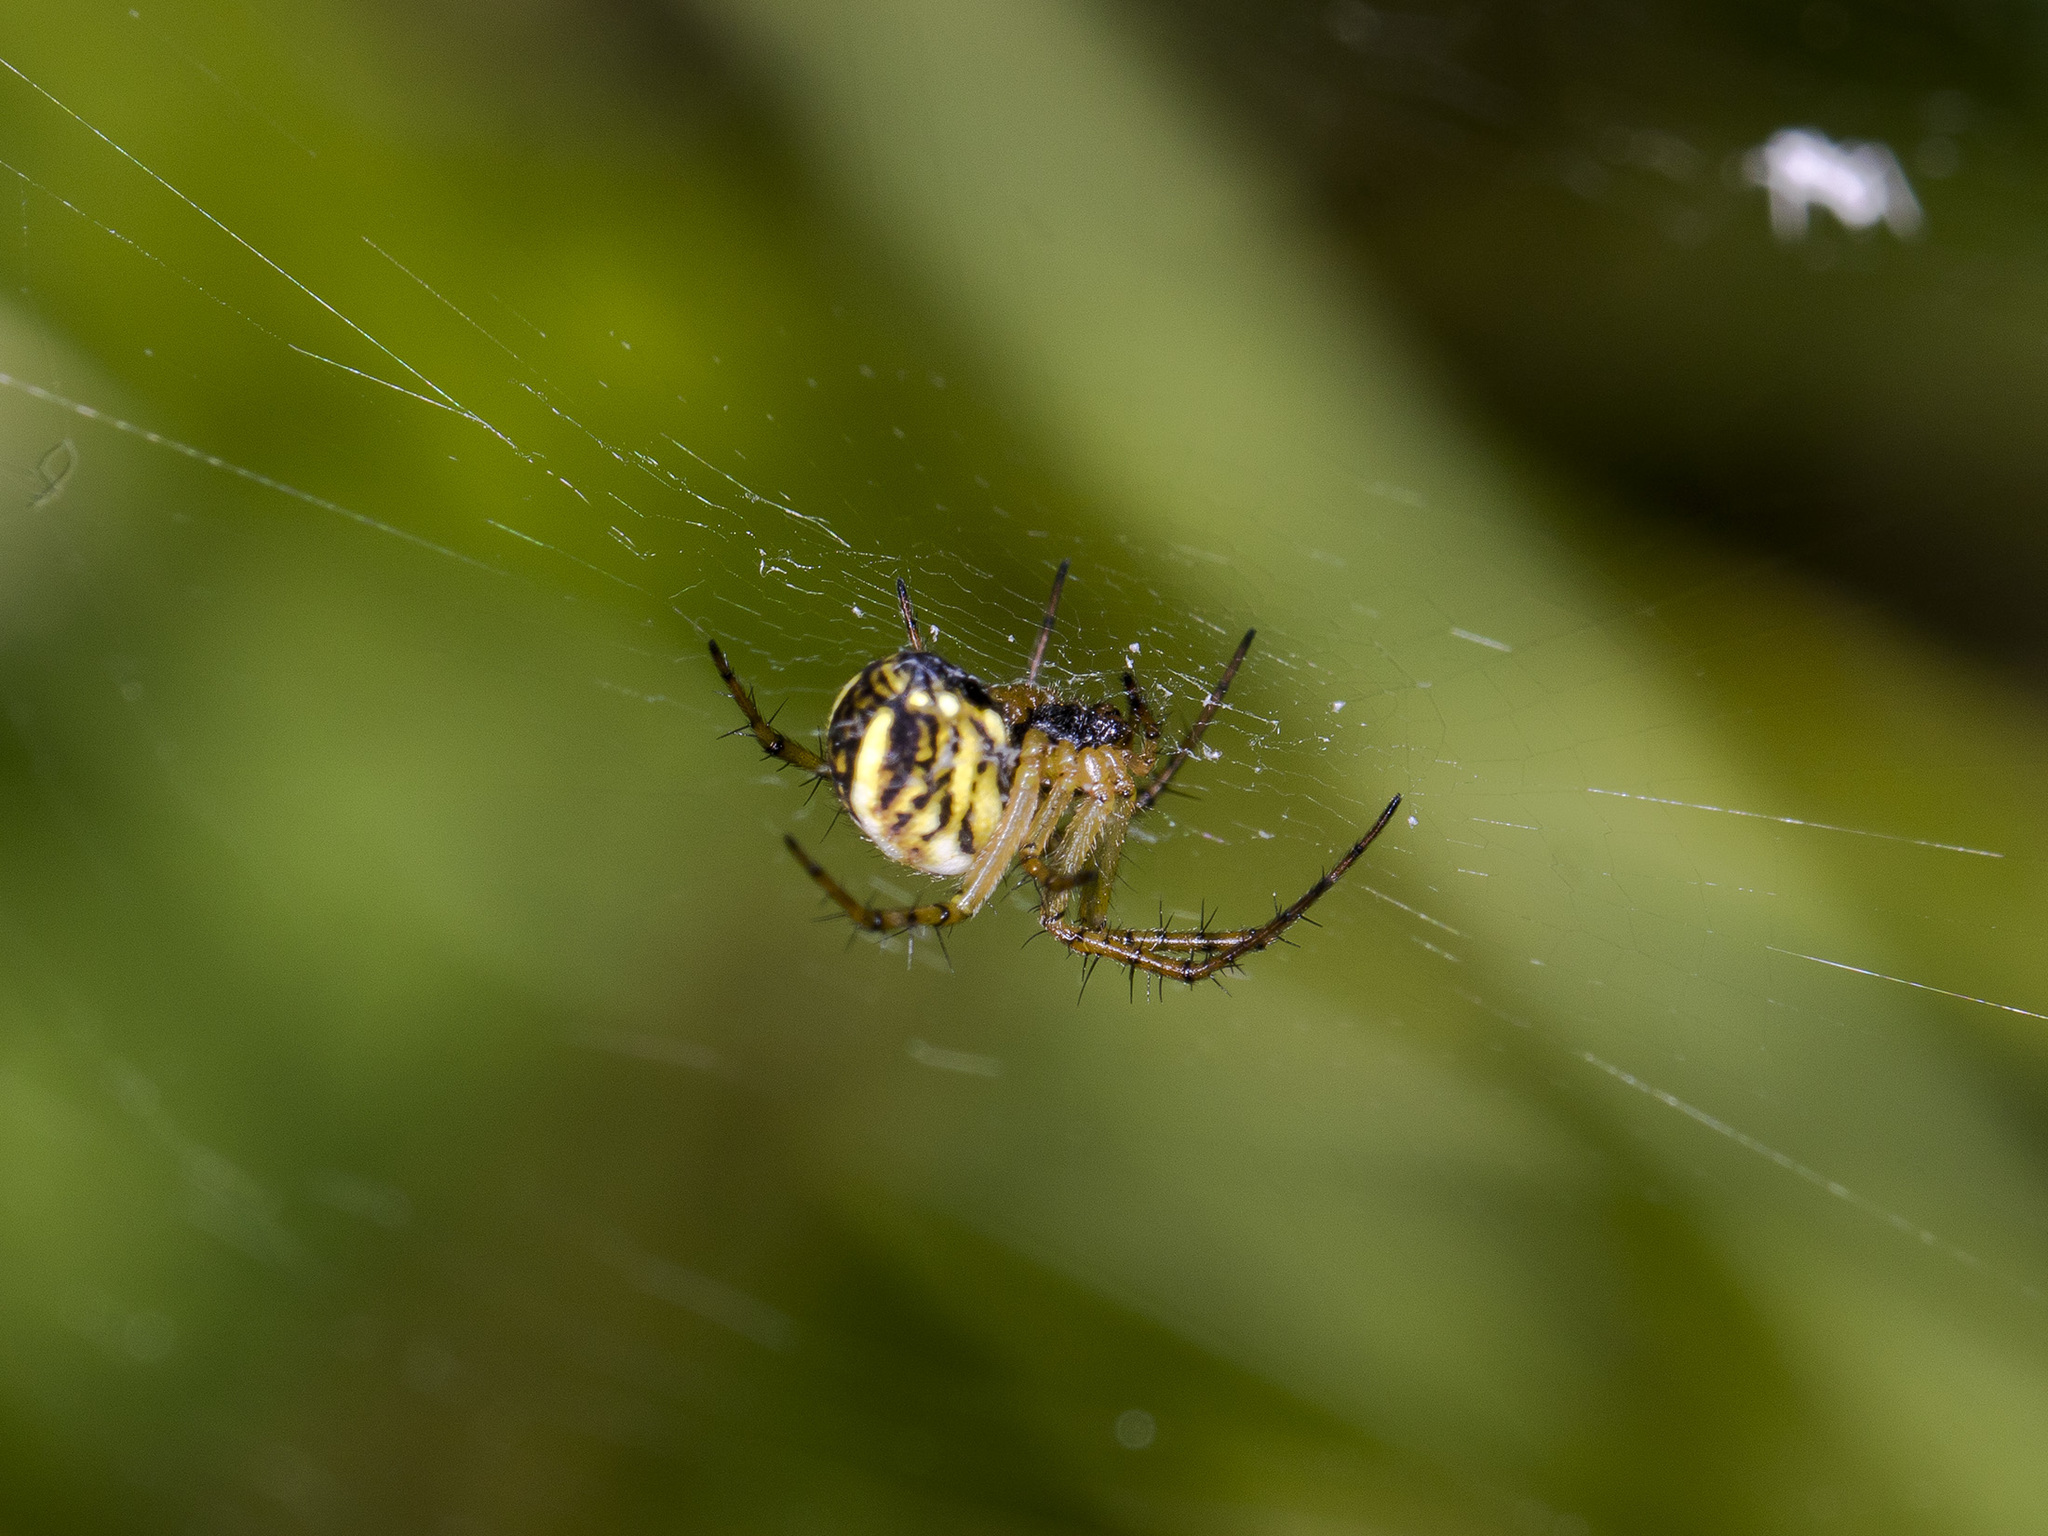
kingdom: Animalia
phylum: Arthropoda
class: Arachnida
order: Araneae
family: Araneidae
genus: Mangora
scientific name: Mangora acalypha
